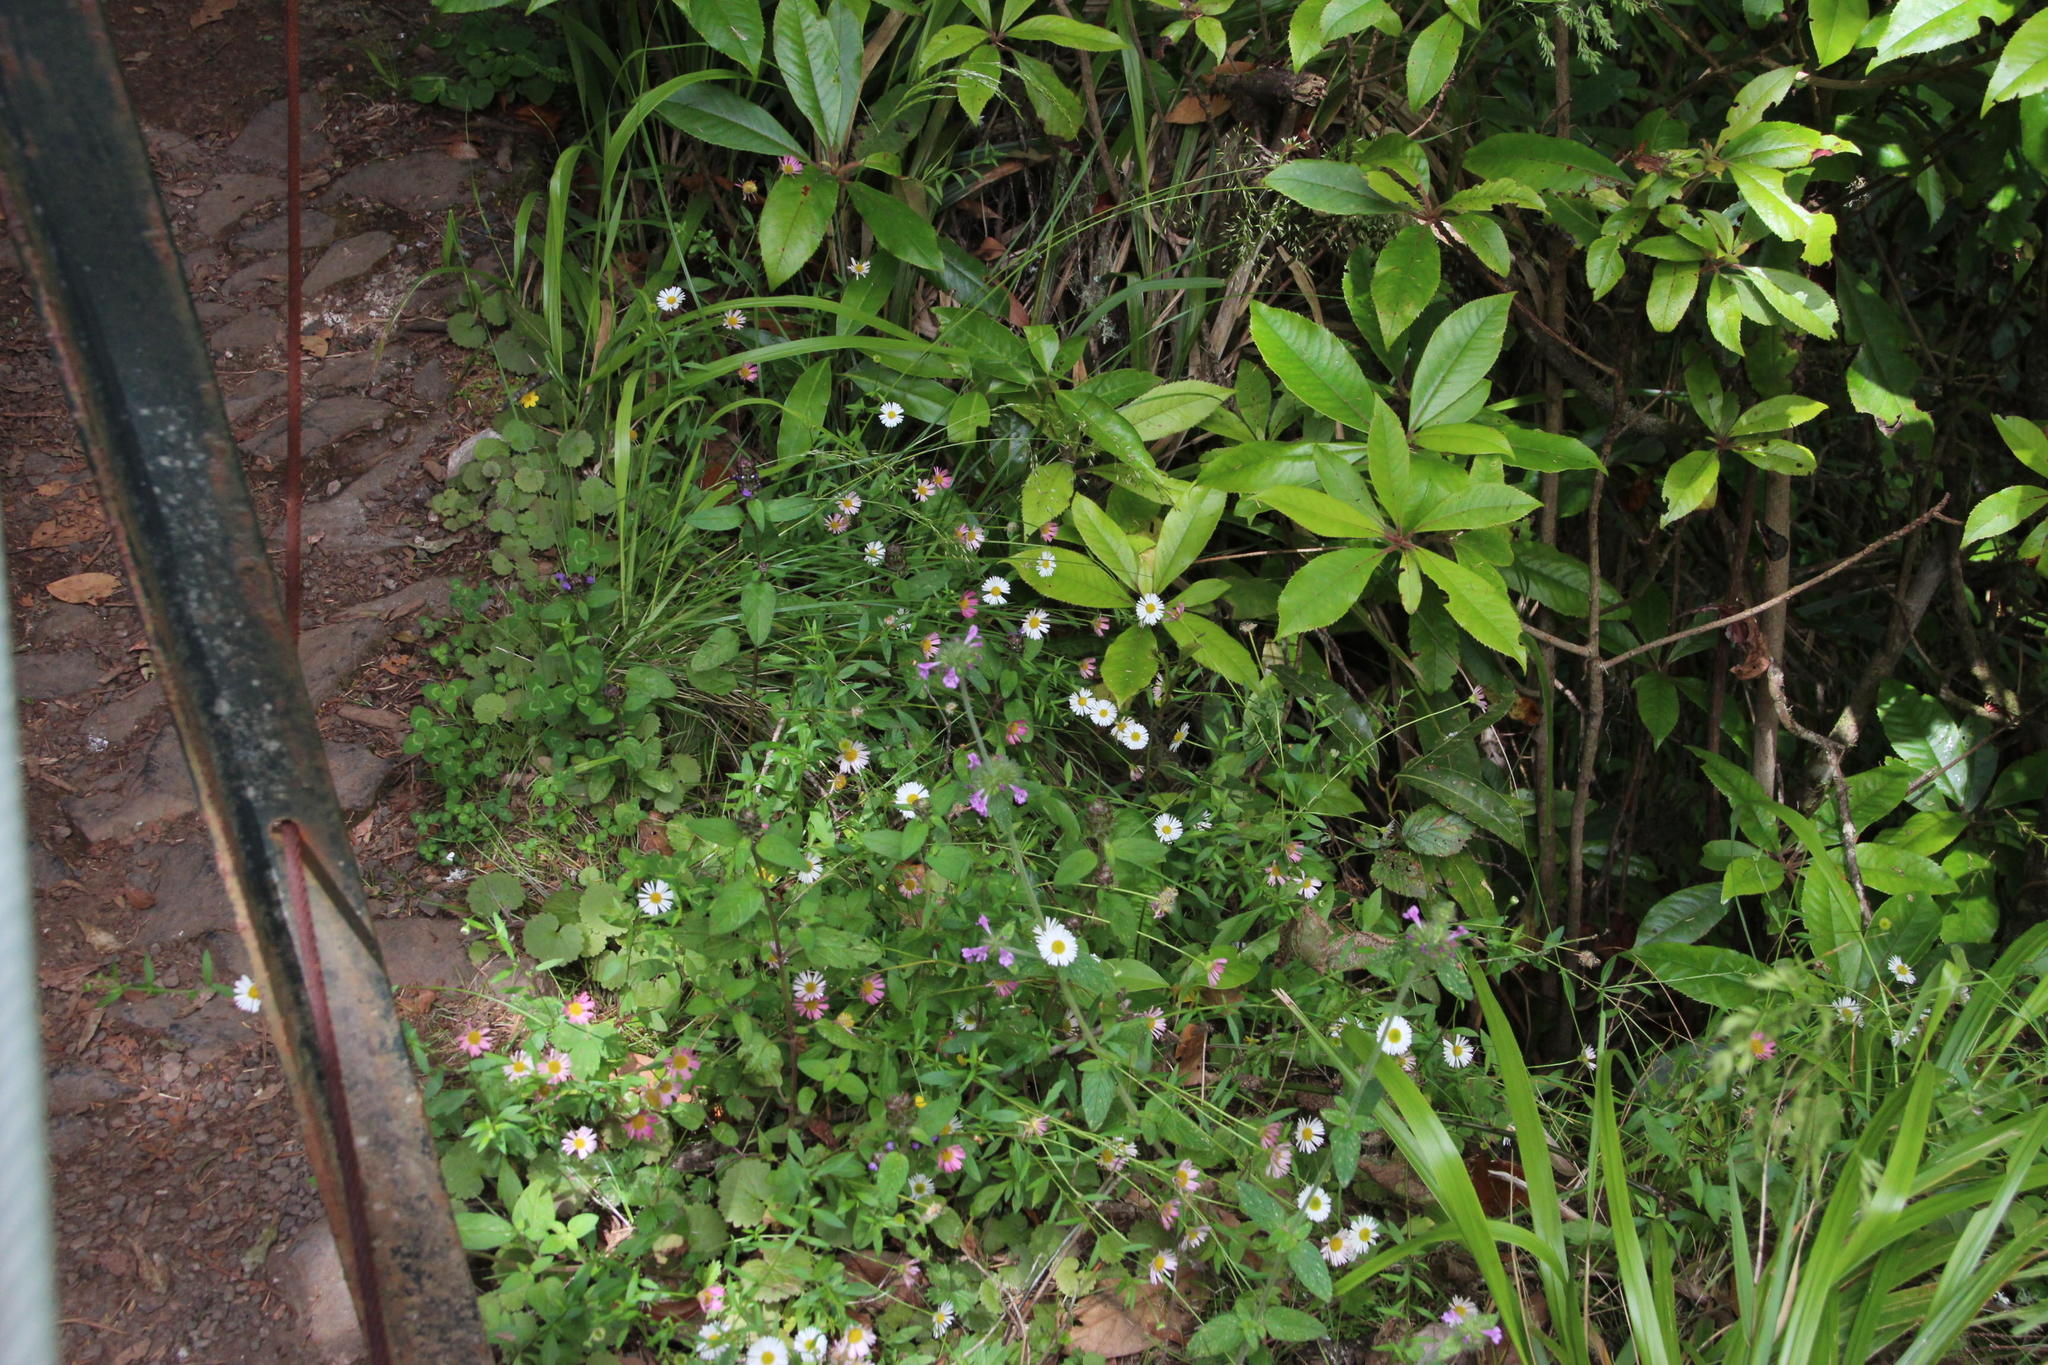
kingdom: Plantae
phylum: Tracheophyta
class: Magnoliopsida
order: Asterales
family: Asteraceae
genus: Erigeron
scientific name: Erigeron karvinskianus
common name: Mexican fleabane
